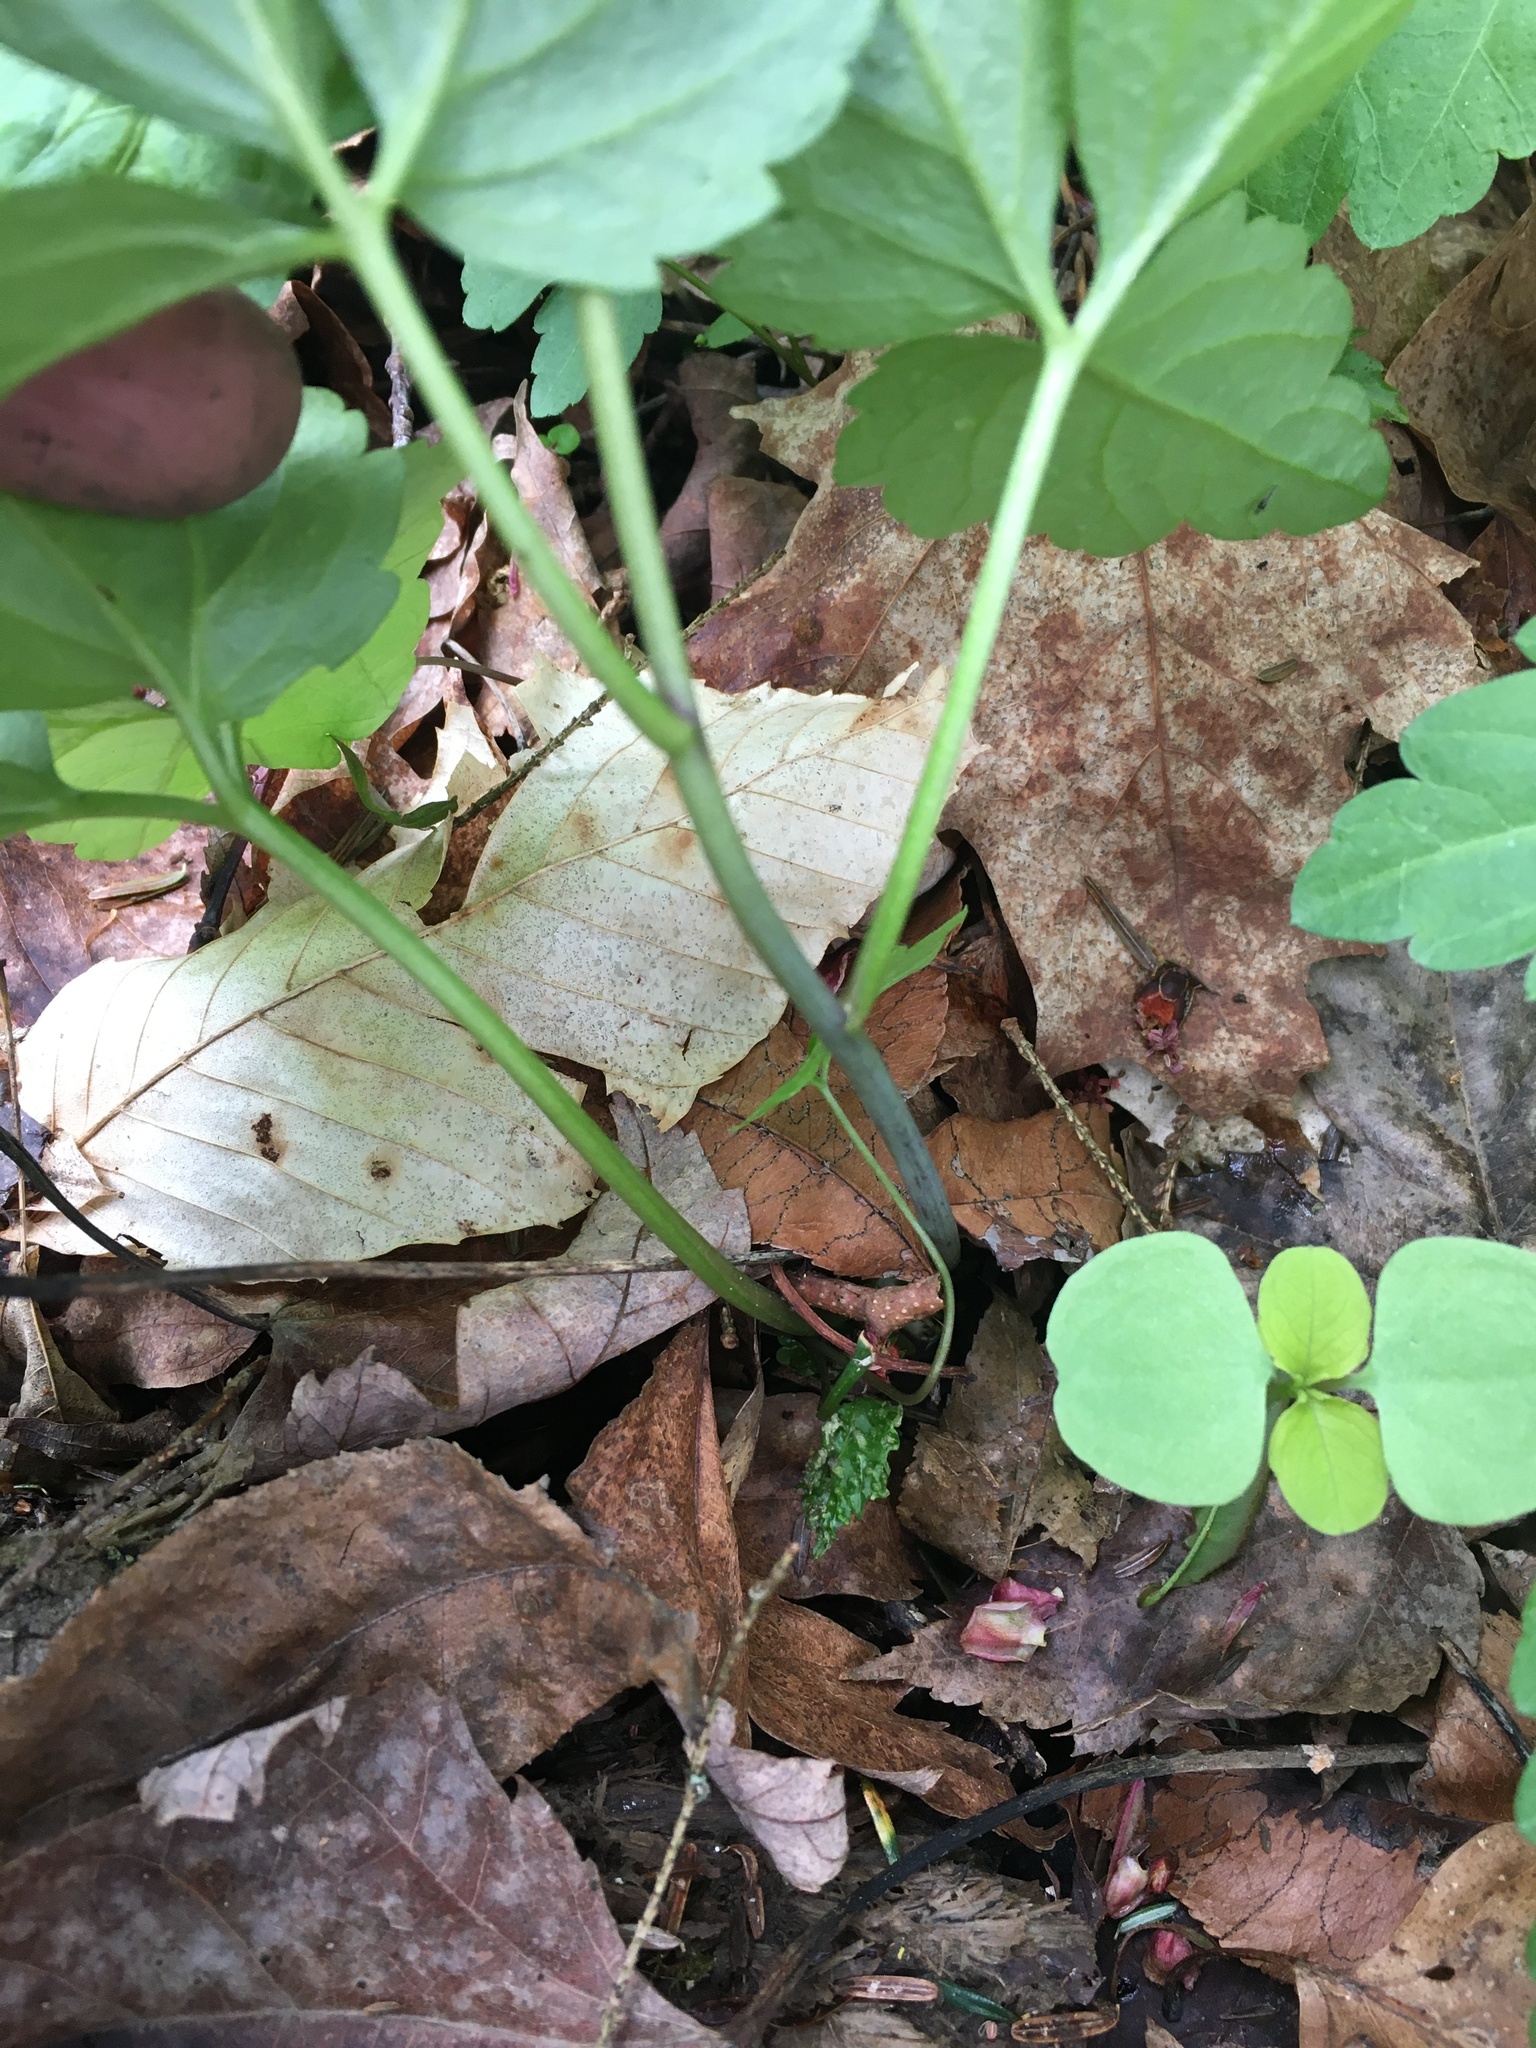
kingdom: Plantae
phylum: Tracheophyta
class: Magnoliopsida
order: Brassicales
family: Brassicaceae
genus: Cardamine
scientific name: Cardamine diphylla
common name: Broad-leaved toothwort
